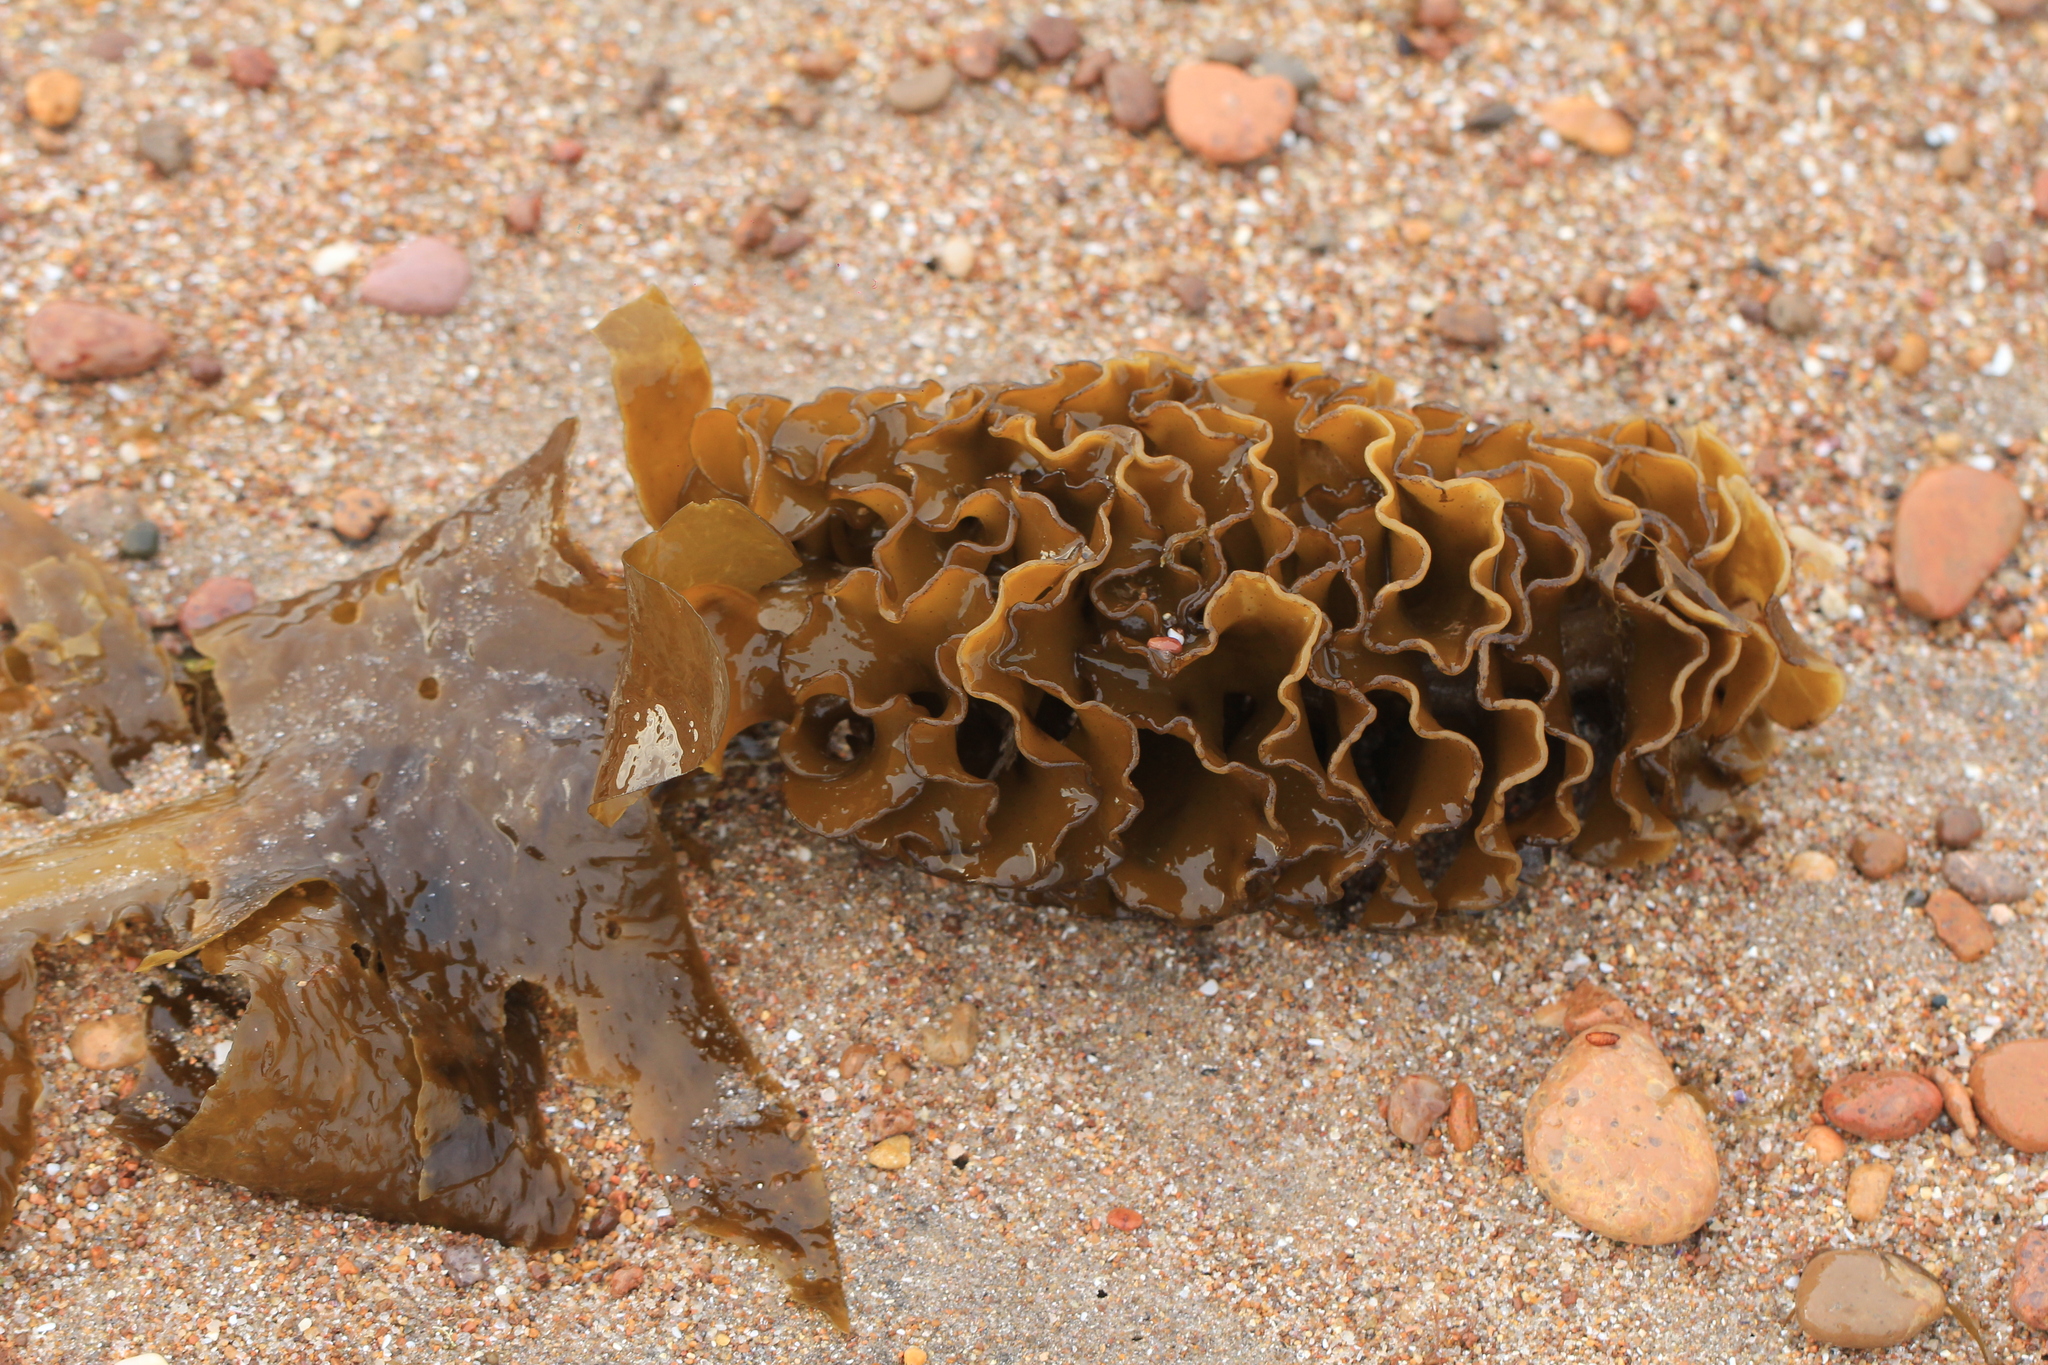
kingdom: Chromista
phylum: Ochrophyta
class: Phaeophyceae
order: Laminariales
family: Alariaceae
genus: Undaria
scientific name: Undaria pinnatifida
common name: Asian kelp
